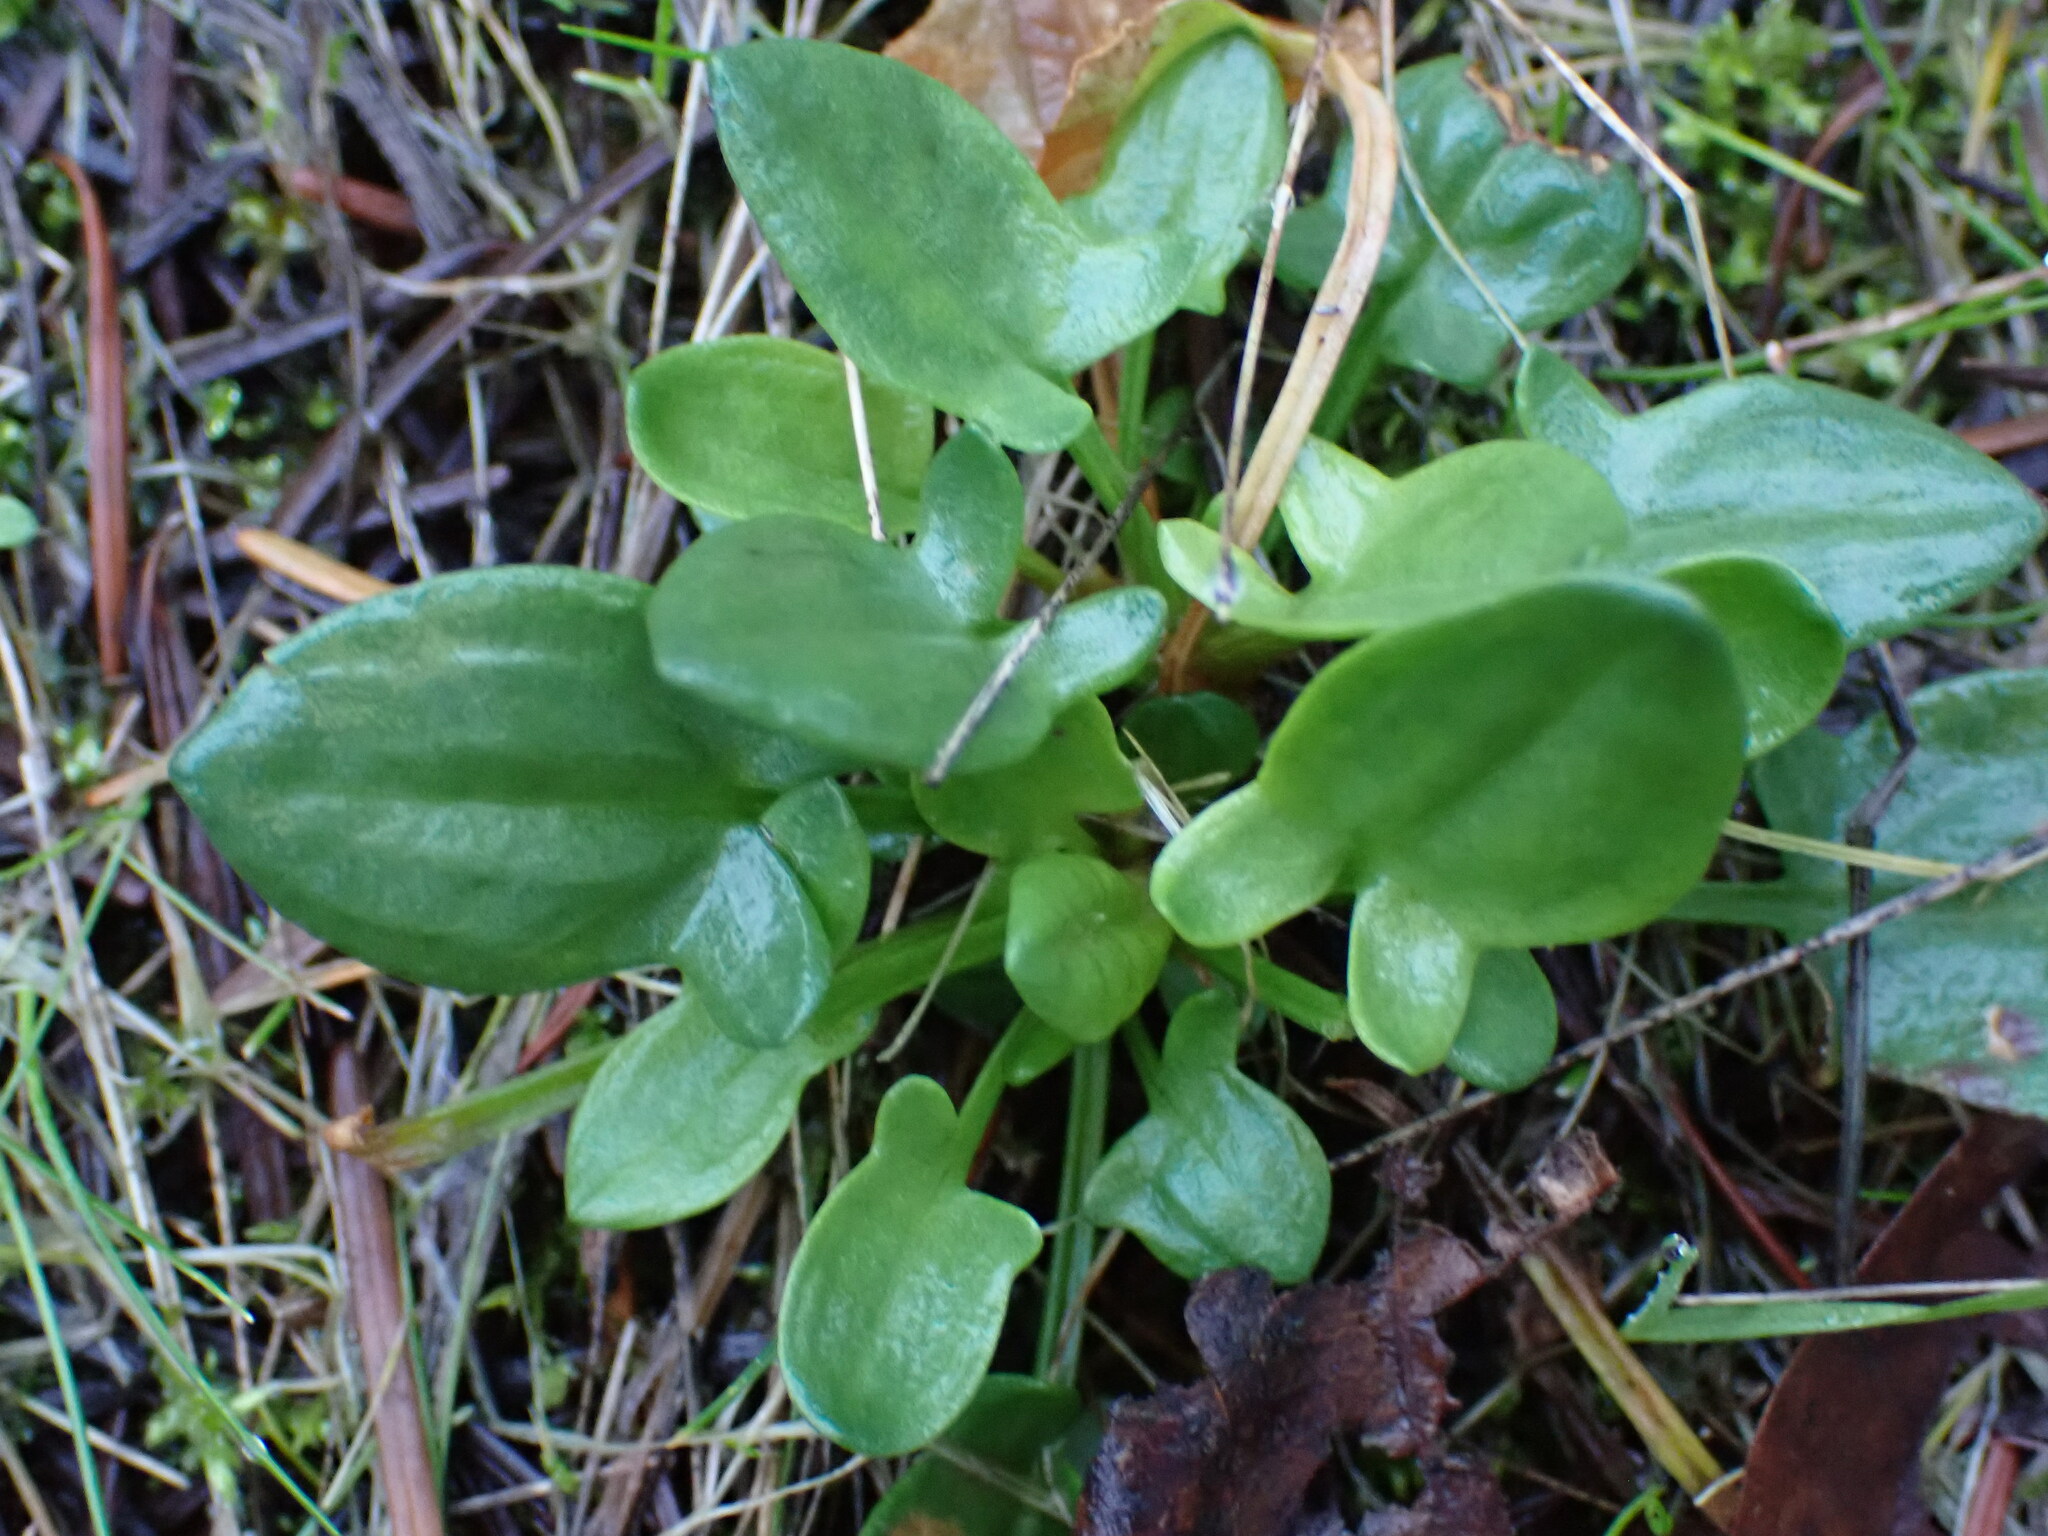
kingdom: Plantae
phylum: Tracheophyta
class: Magnoliopsida
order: Caryophyllales
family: Polygonaceae
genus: Rumex
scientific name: Rumex acetosella
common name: Common sheep sorrel
